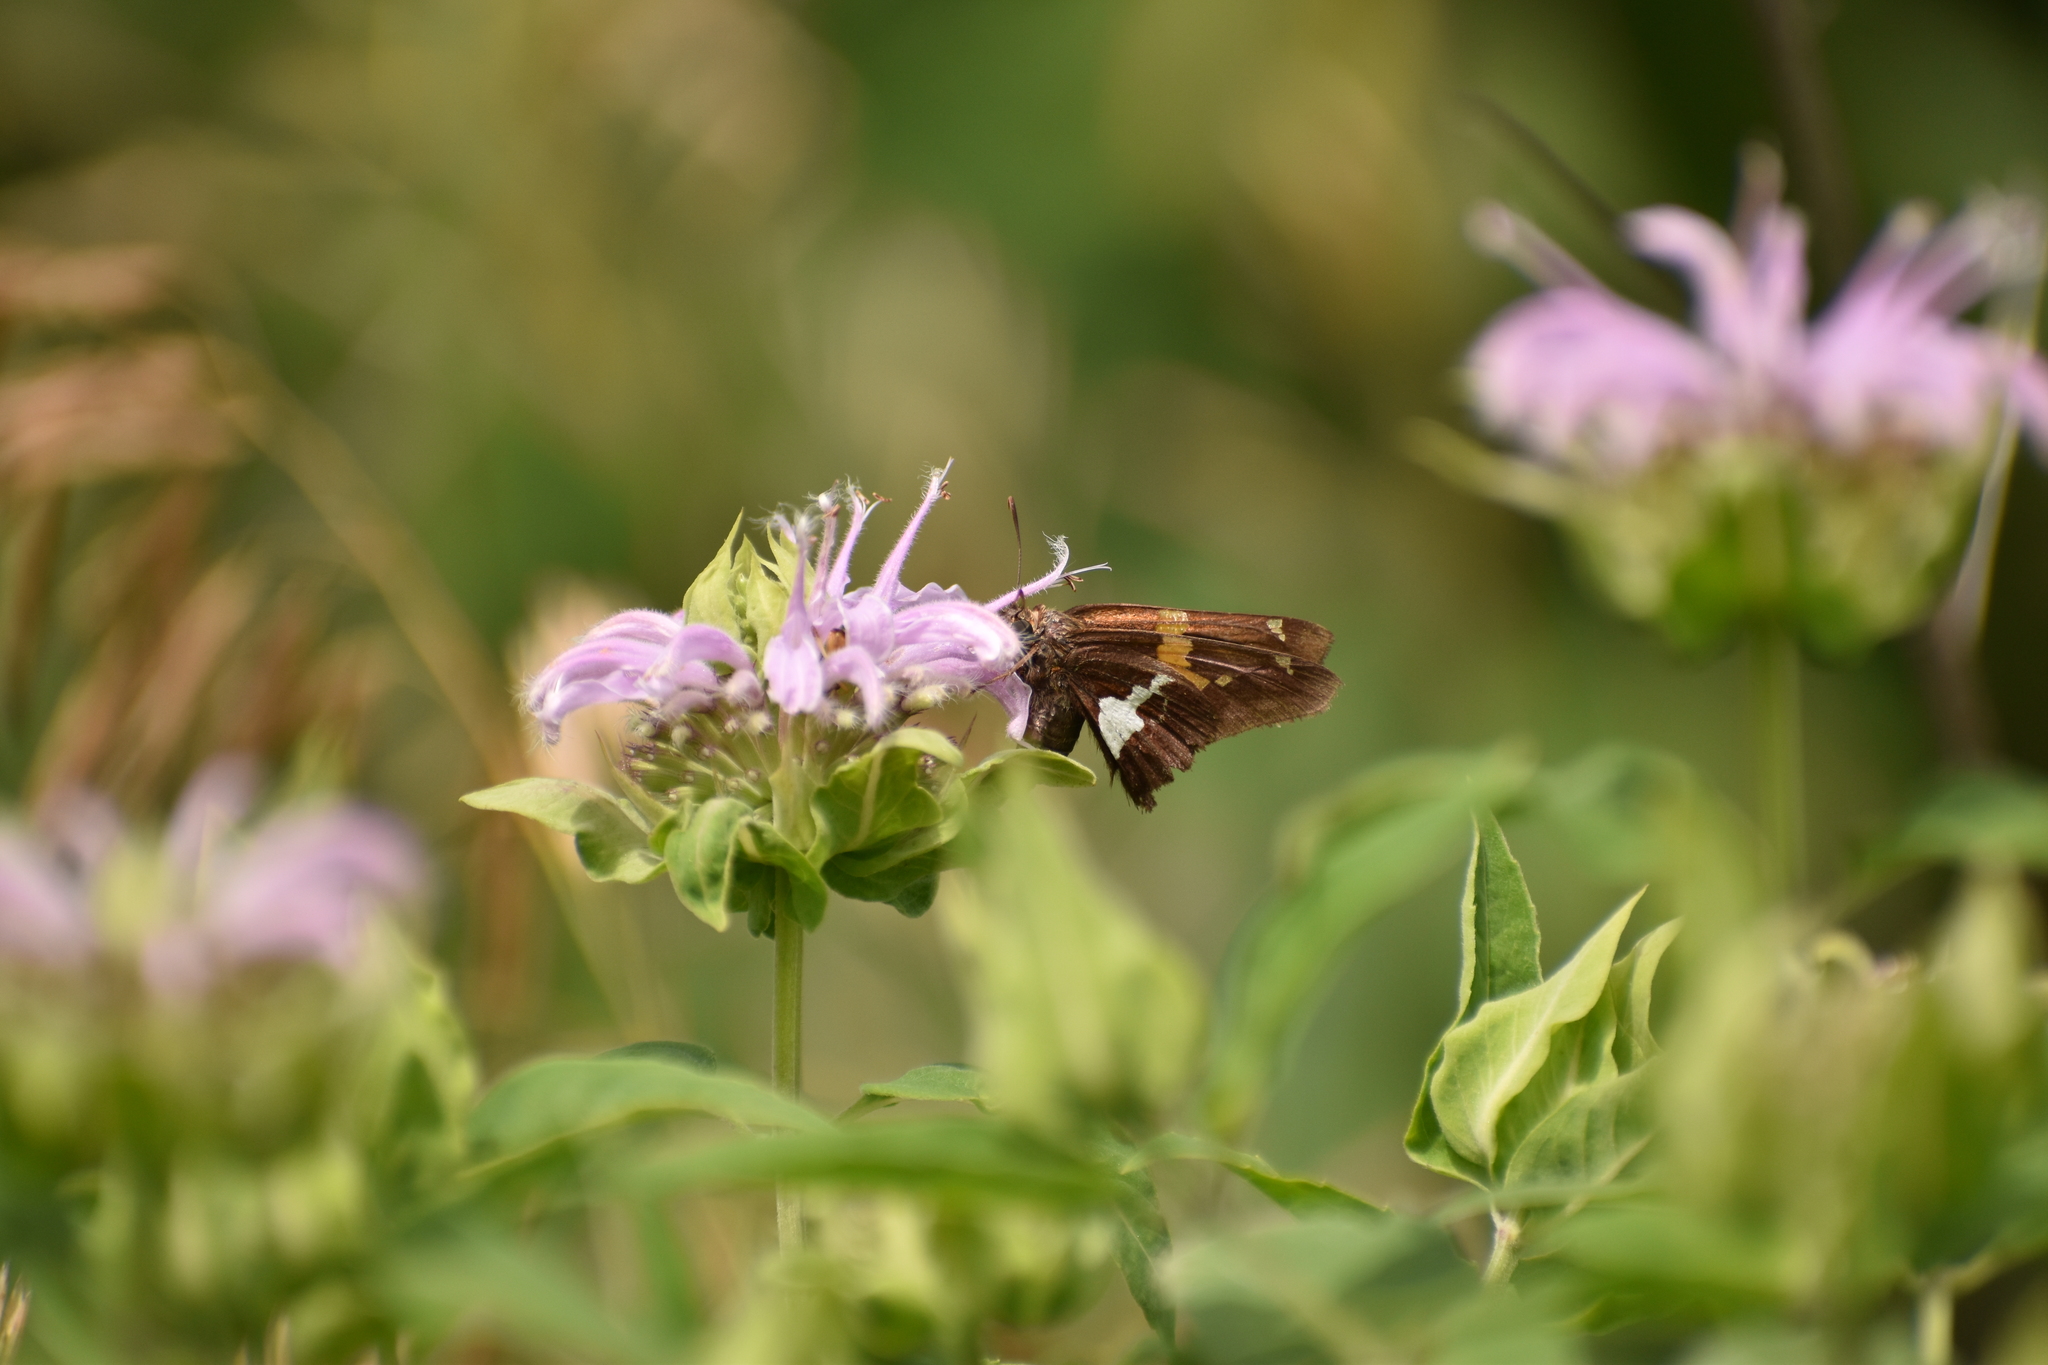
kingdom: Animalia
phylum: Arthropoda
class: Insecta
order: Lepidoptera
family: Hesperiidae
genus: Epargyreus
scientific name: Epargyreus clarus
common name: Silver-spotted skipper
